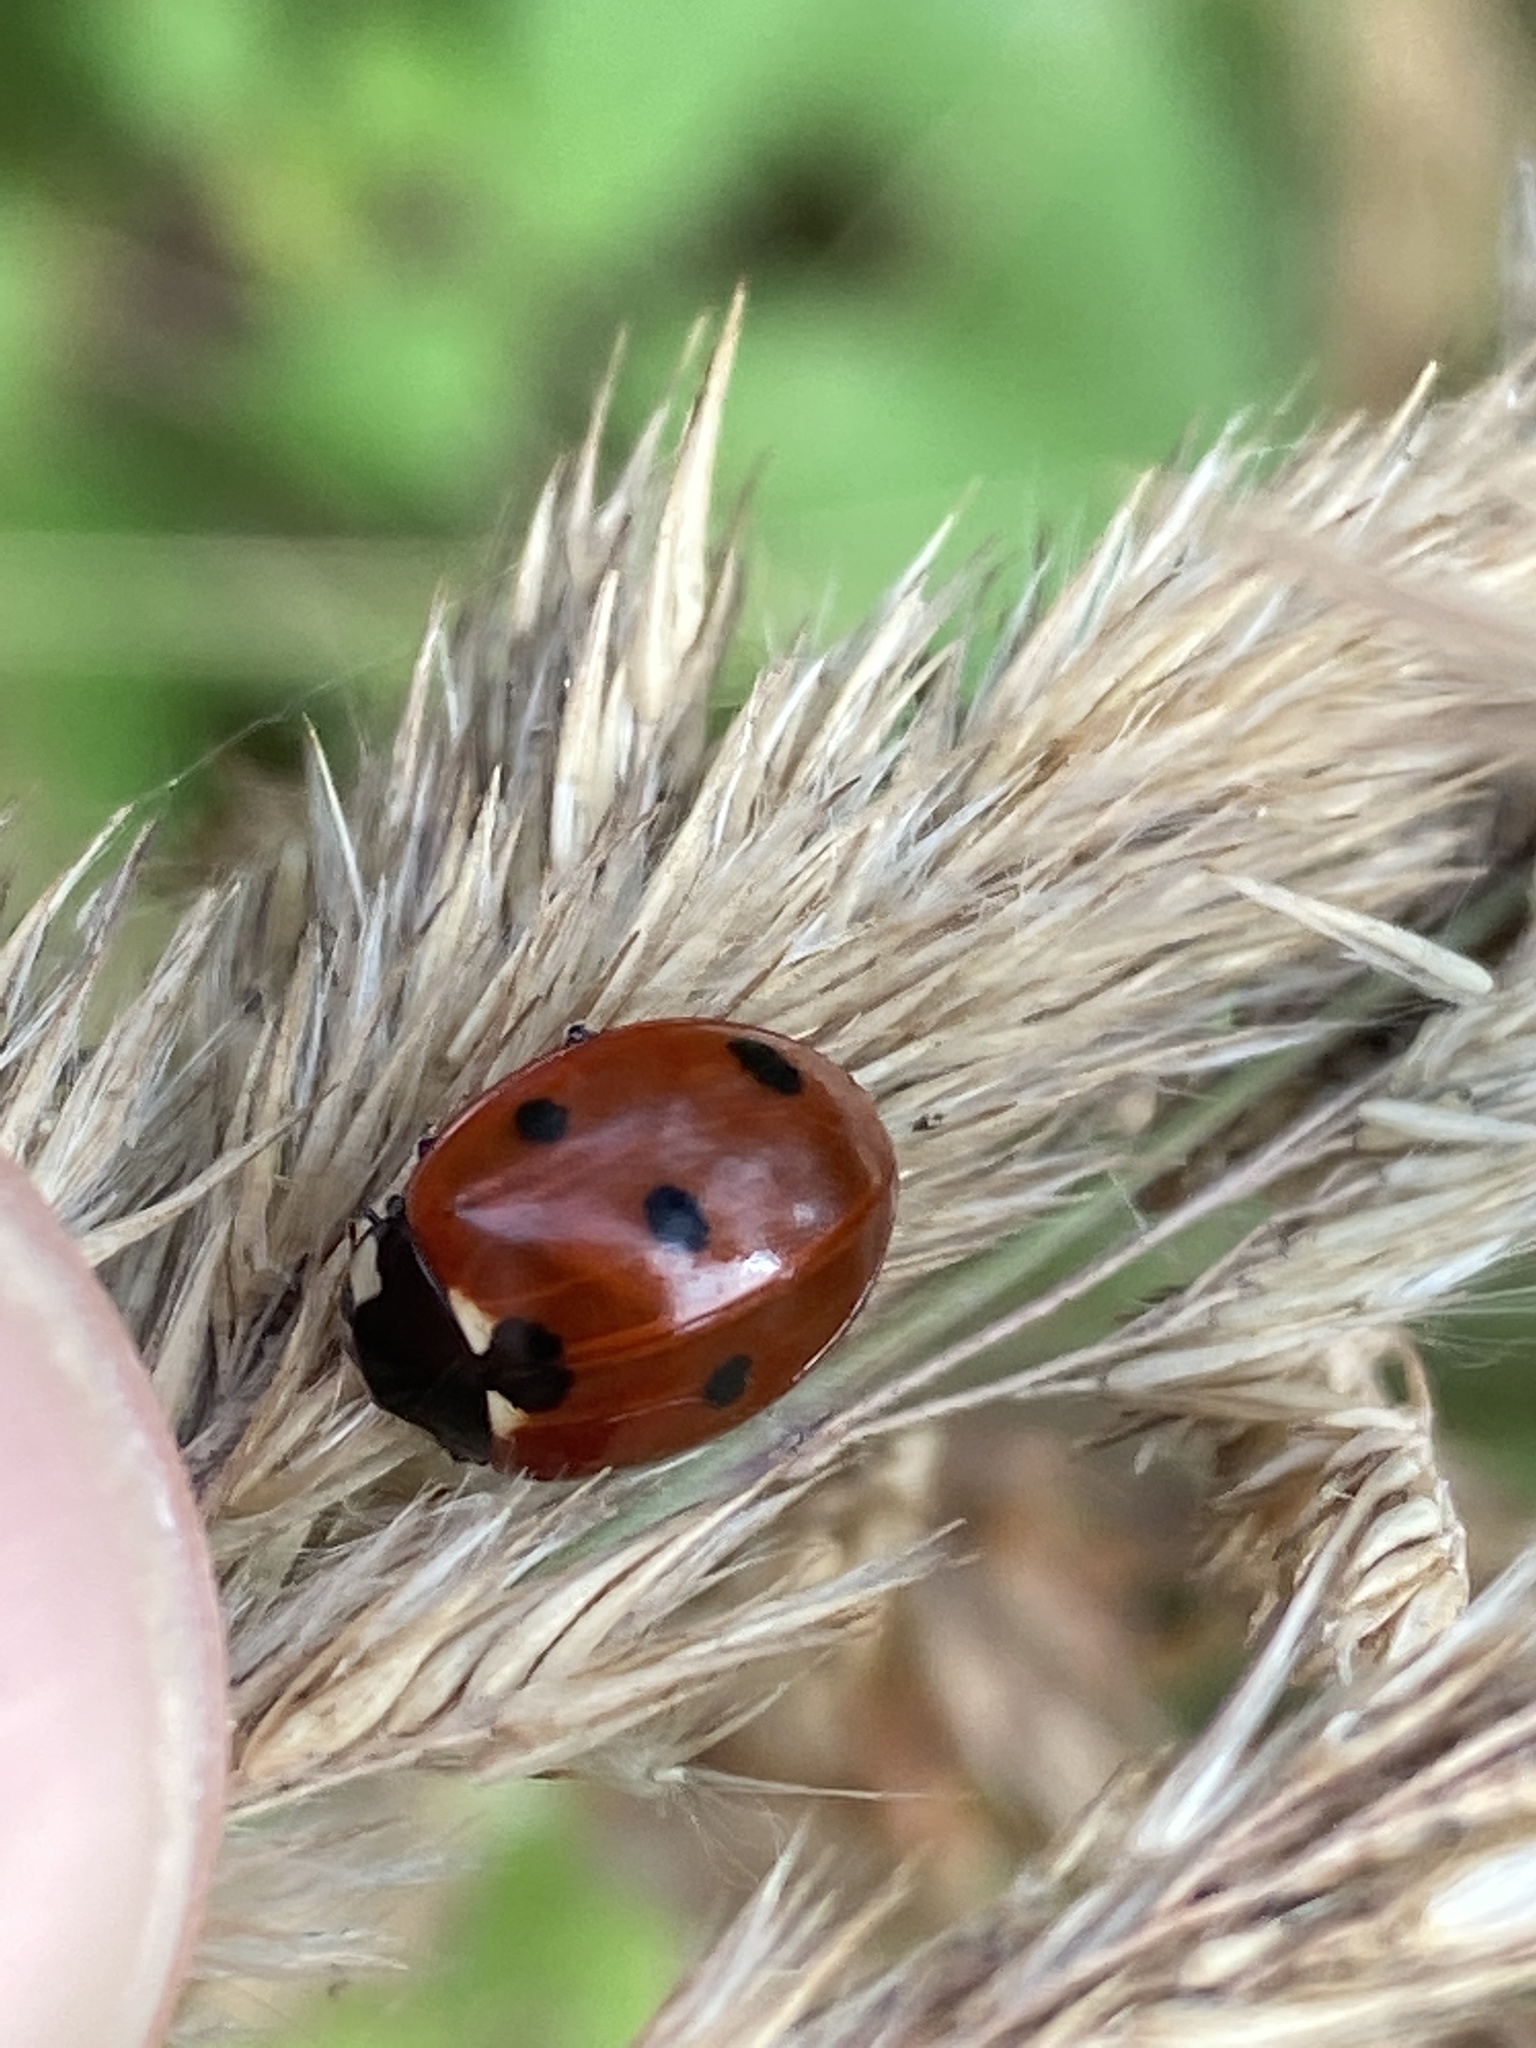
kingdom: Animalia
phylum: Arthropoda
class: Insecta
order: Coleoptera
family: Coccinellidae
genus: Coccinella
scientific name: Coccinella septempunctata
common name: Sevenspotted lady beetle
